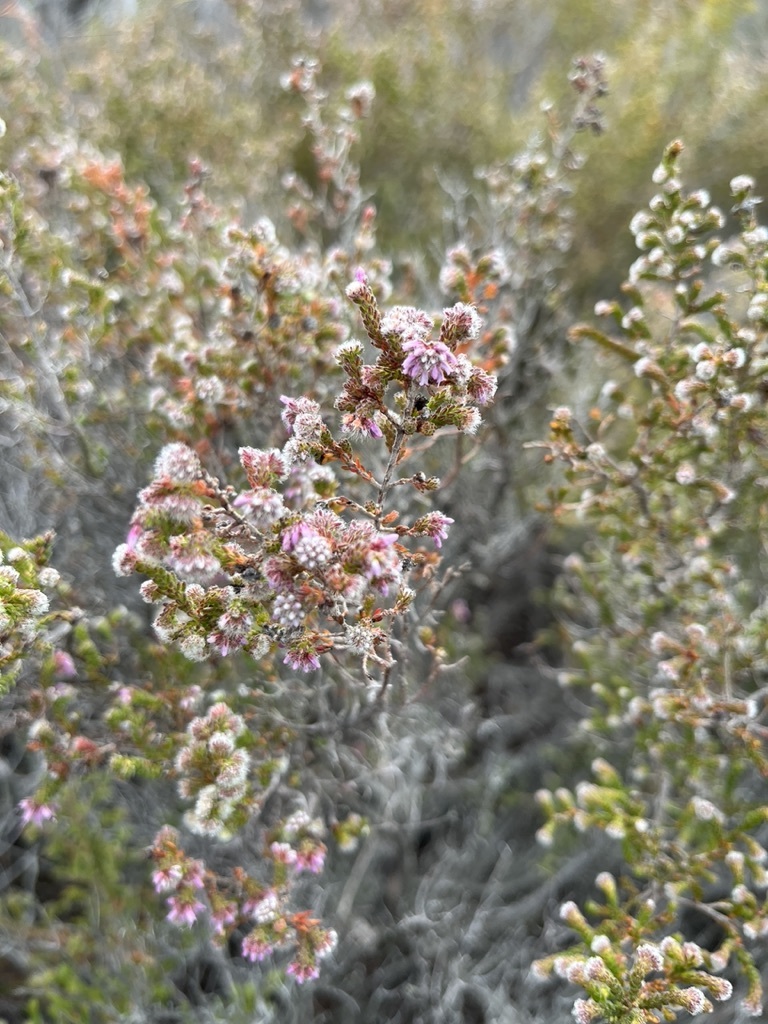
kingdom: Plantae
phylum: Tracheophyta
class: Magnoliopsida
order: Ericales
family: Ericaceae
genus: Erica
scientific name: Erica ericoides
